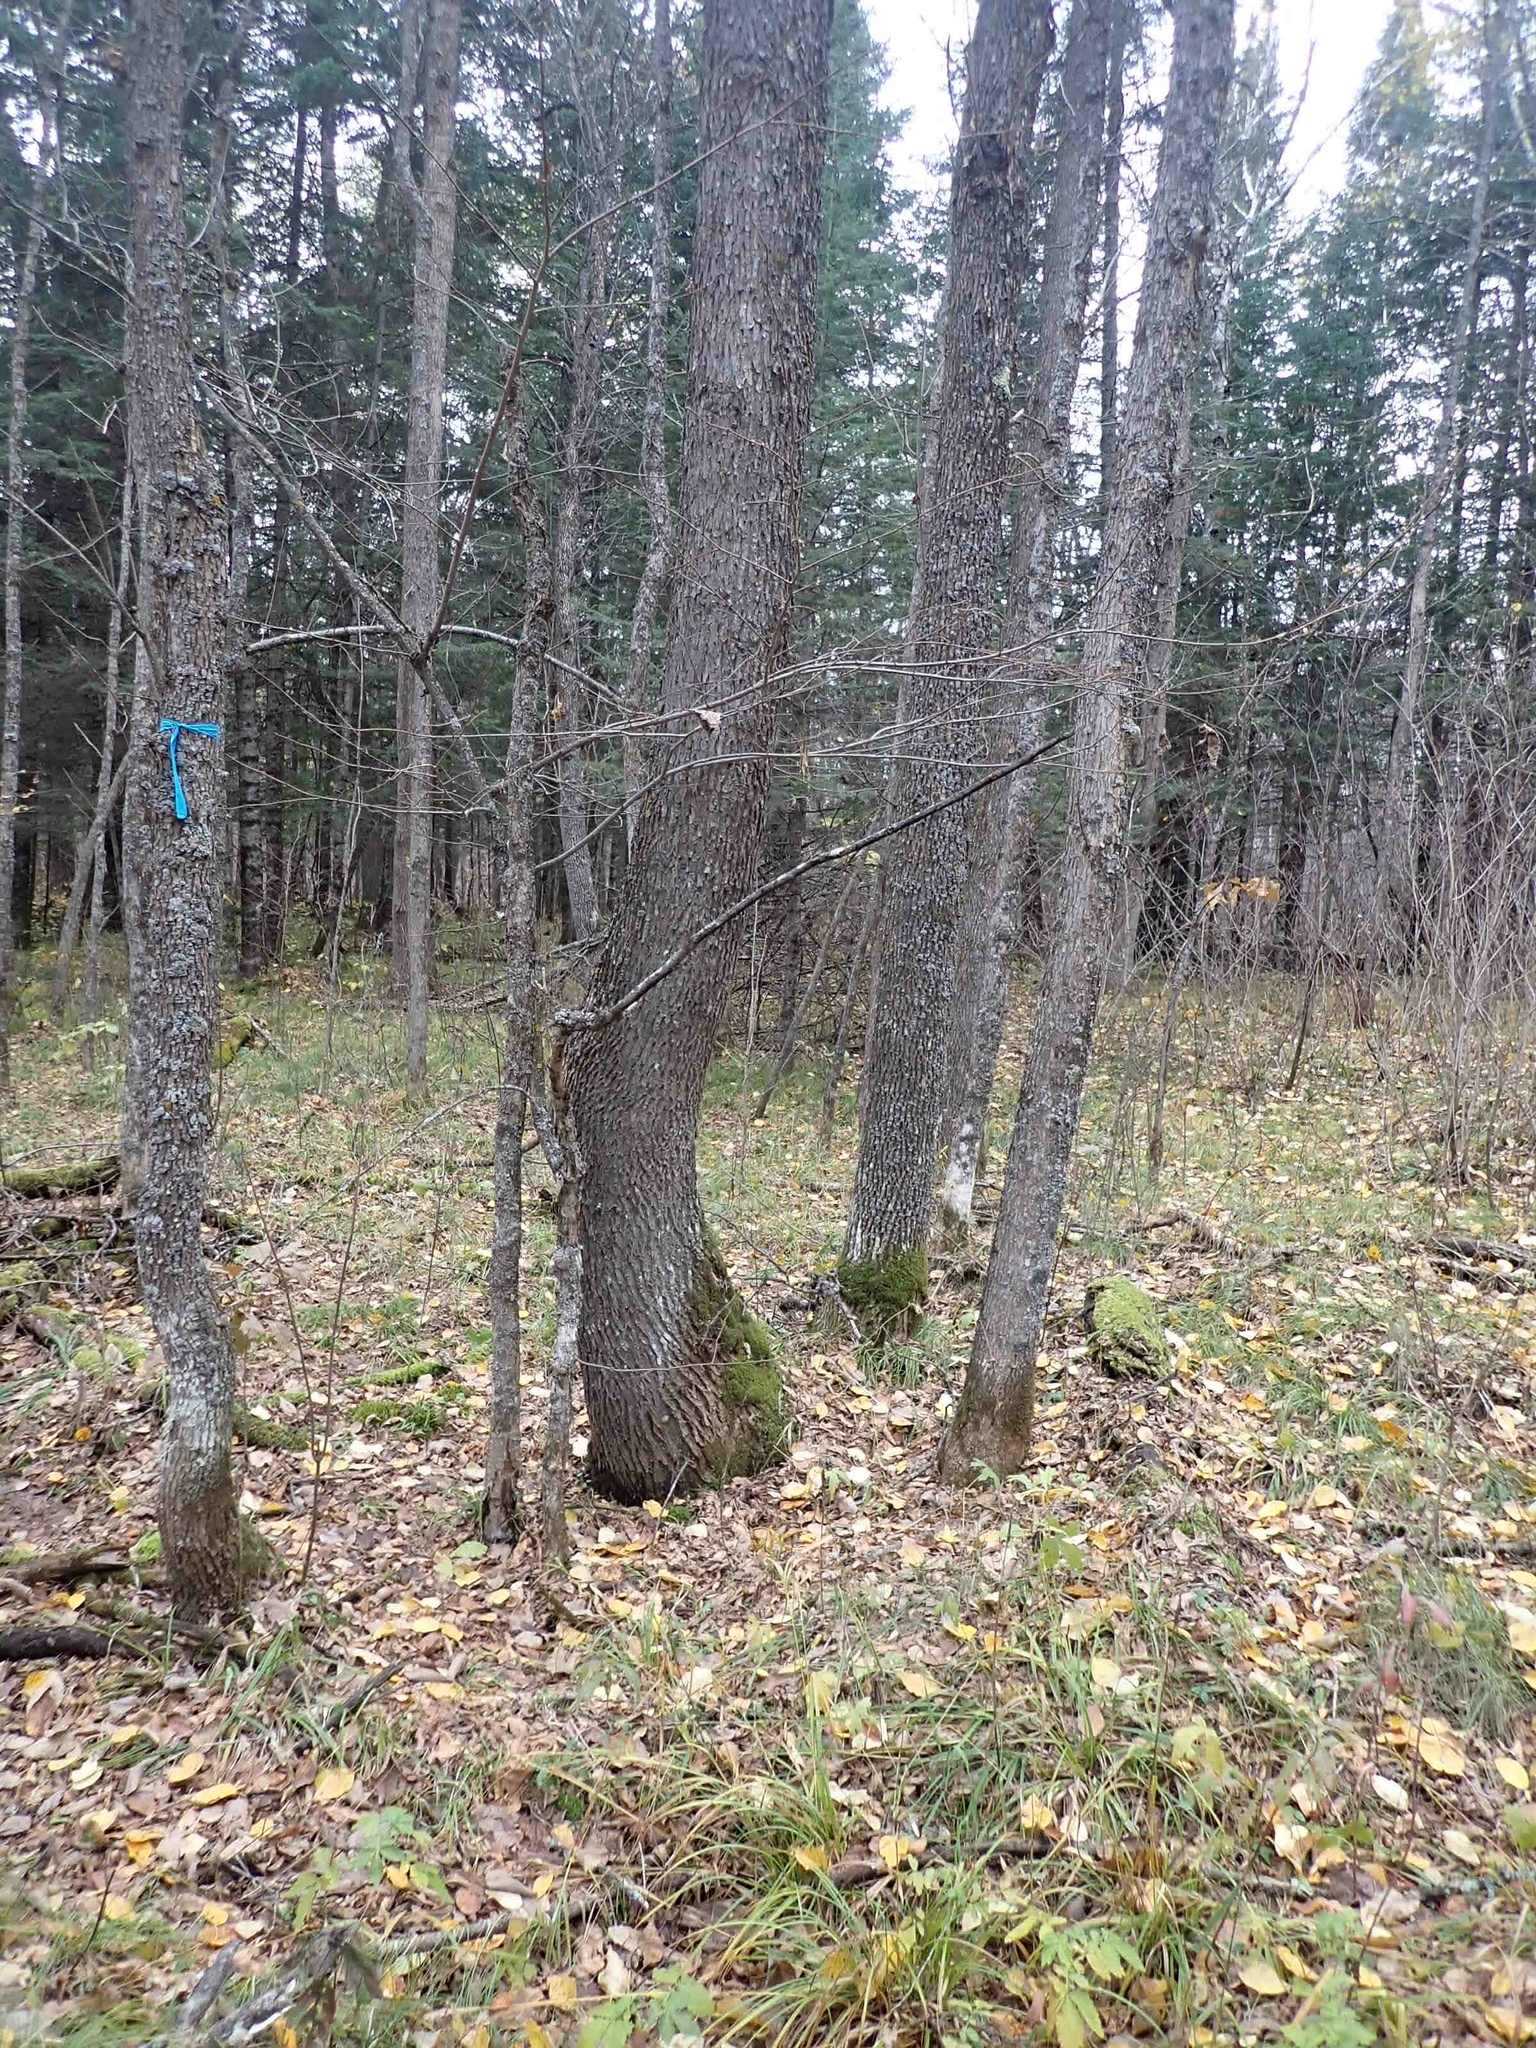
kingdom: Plantae
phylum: Tracheophyta
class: Magnoliopsida
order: Lamiales
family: Oleaceae
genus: Fraxinus
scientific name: Fraxinus pennsylvanica
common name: Green ash
